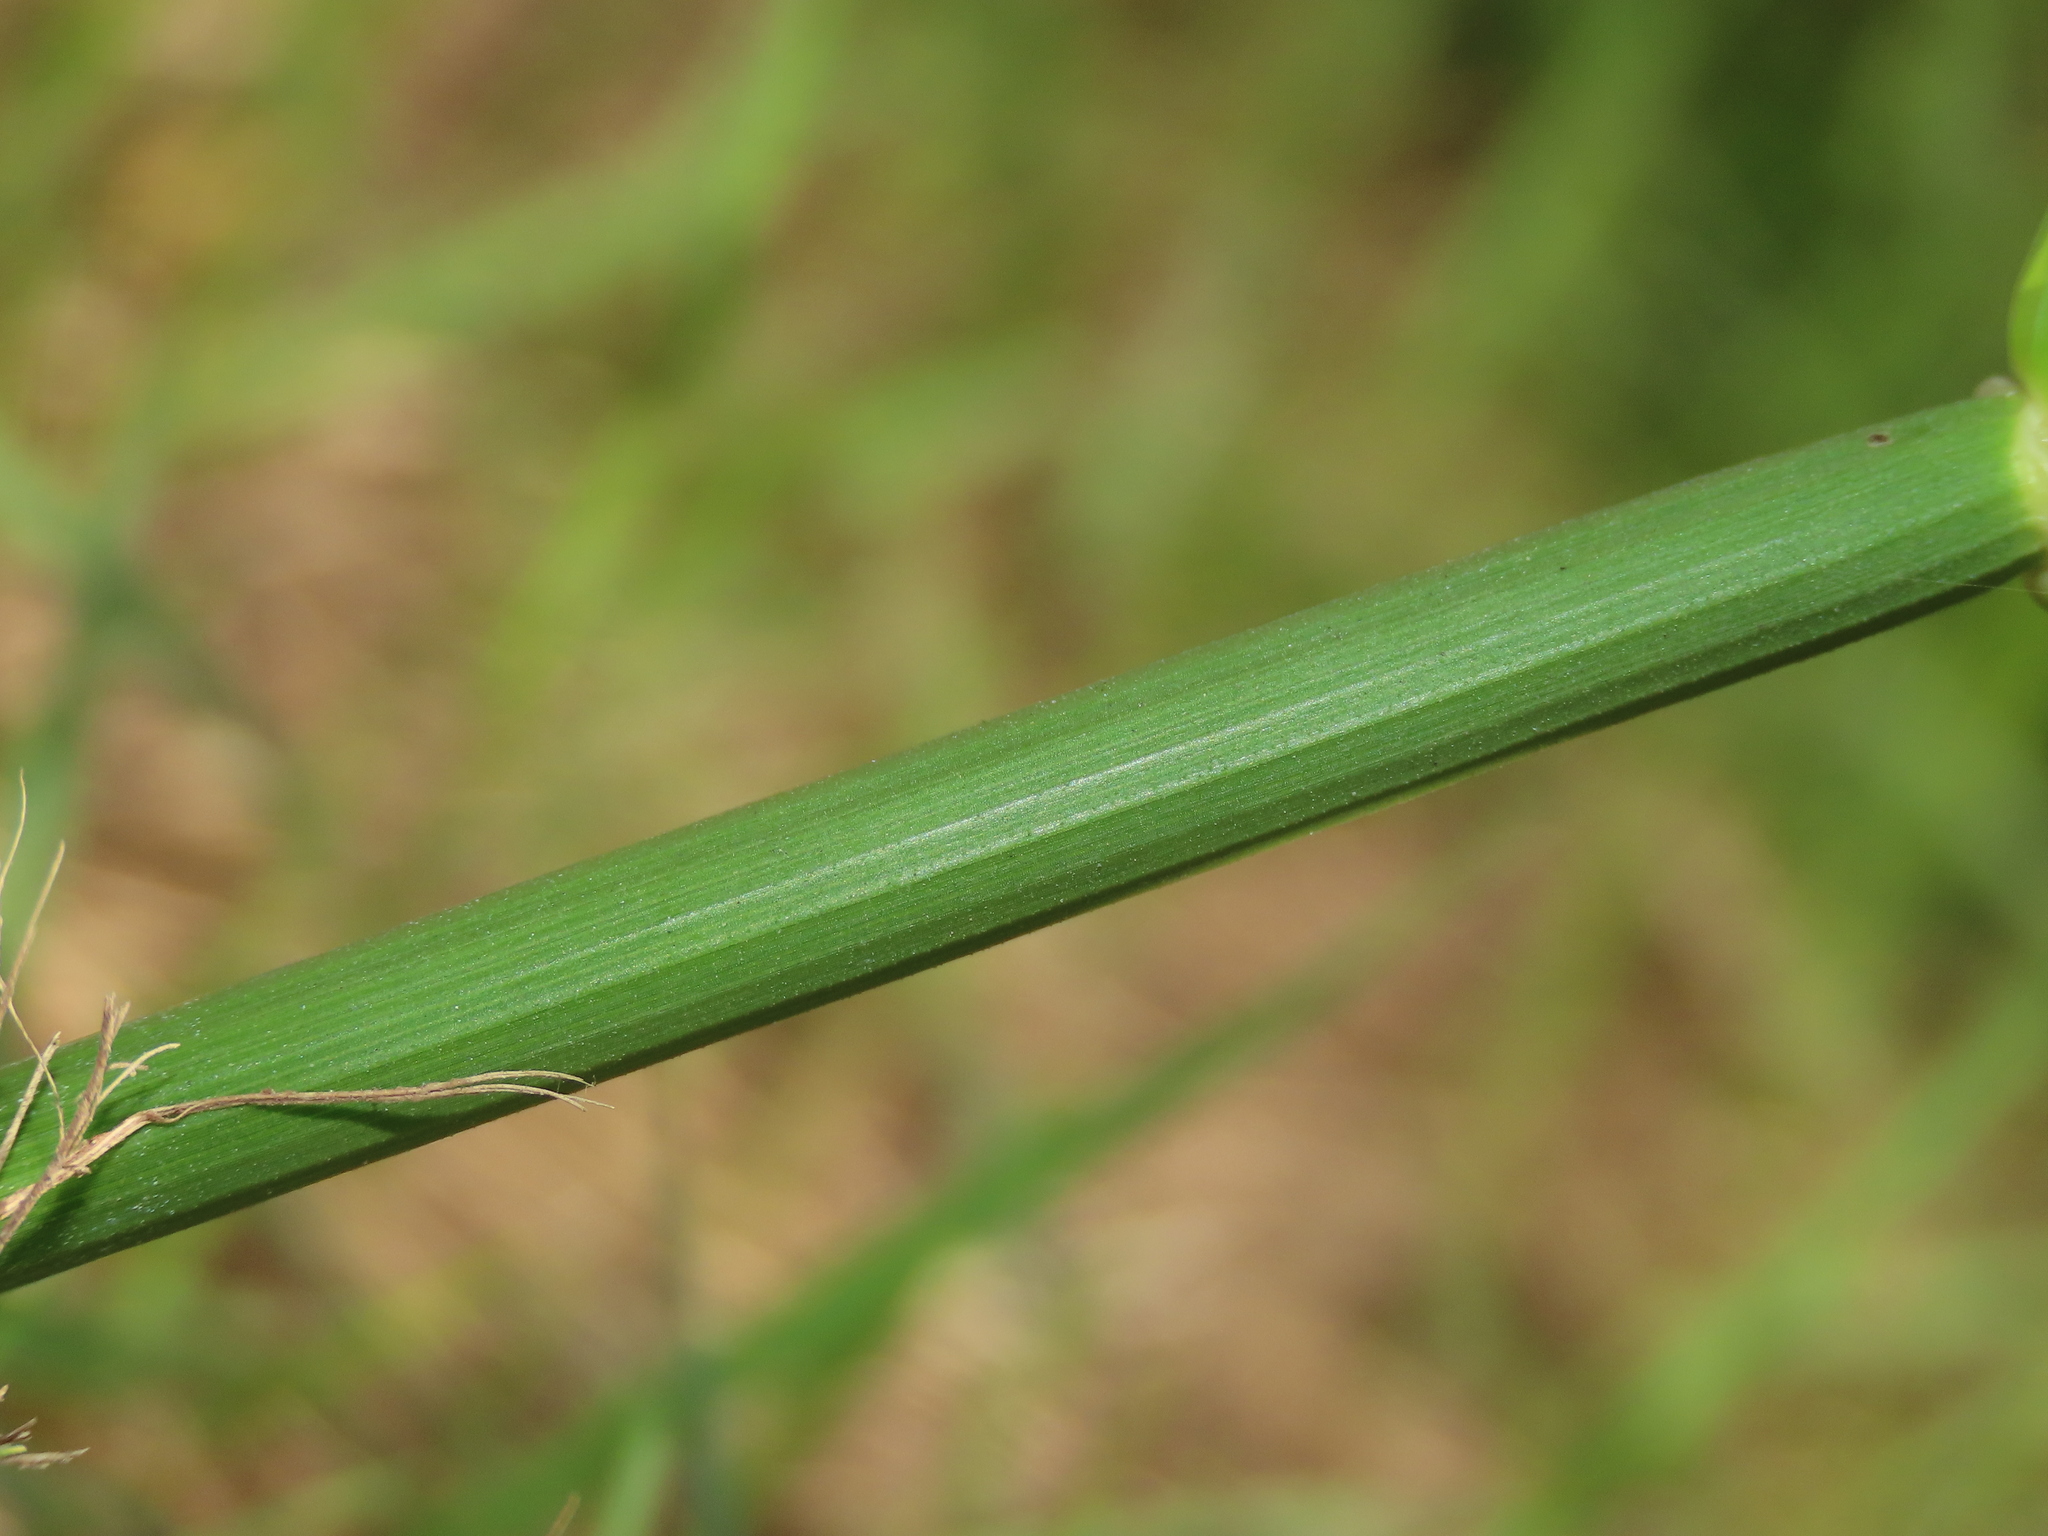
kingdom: Plantae
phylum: Tracheophyta
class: Liliopsida
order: Poales
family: Cyperaceae
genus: Cyperus
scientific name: Cyperus alternifolius
